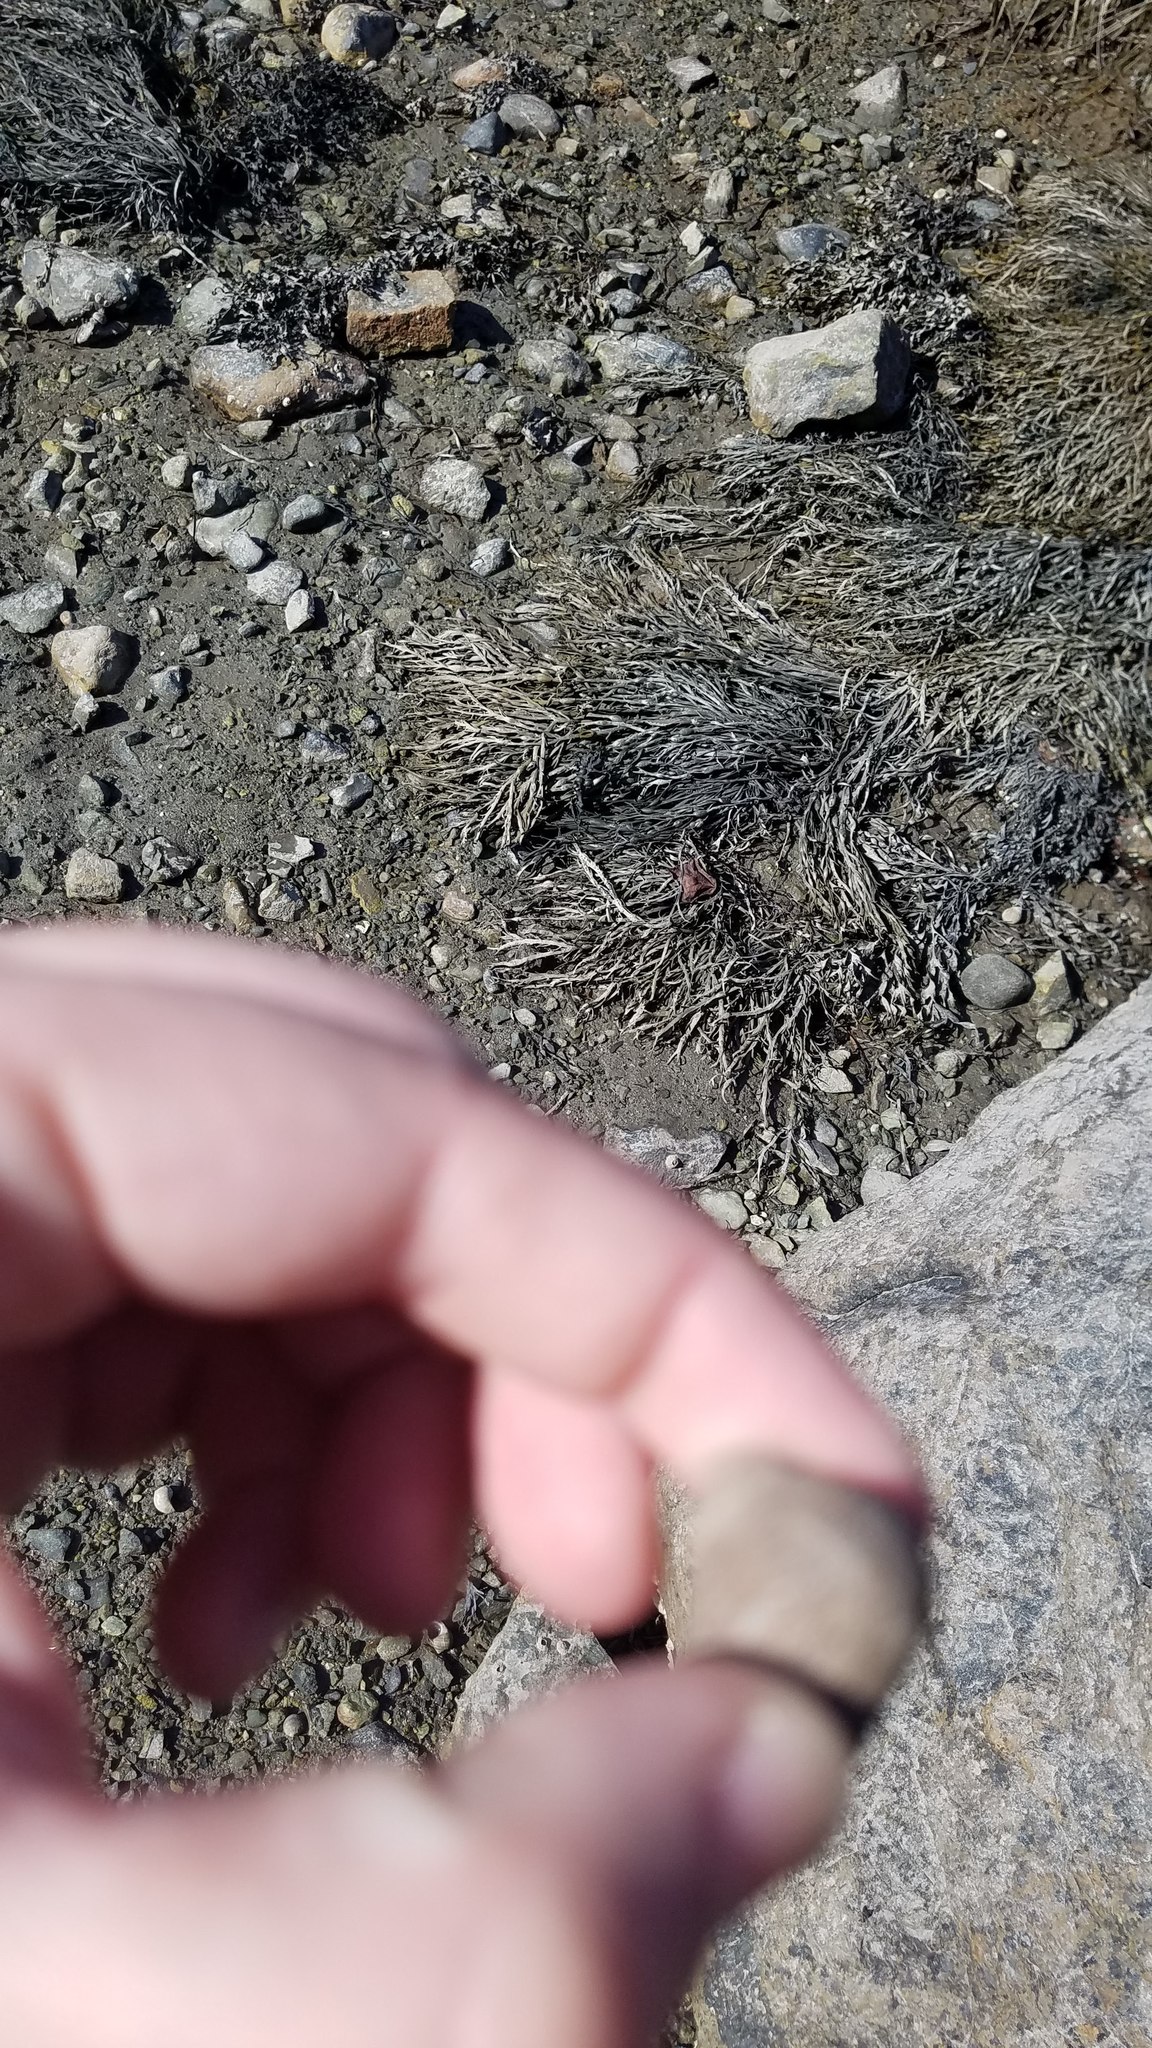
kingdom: Animalia
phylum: Mollusca
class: Gastropoda
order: Littorinimorpha
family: Littorinidae
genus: Littorina
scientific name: Littorina littorea
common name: Common periwinkle
